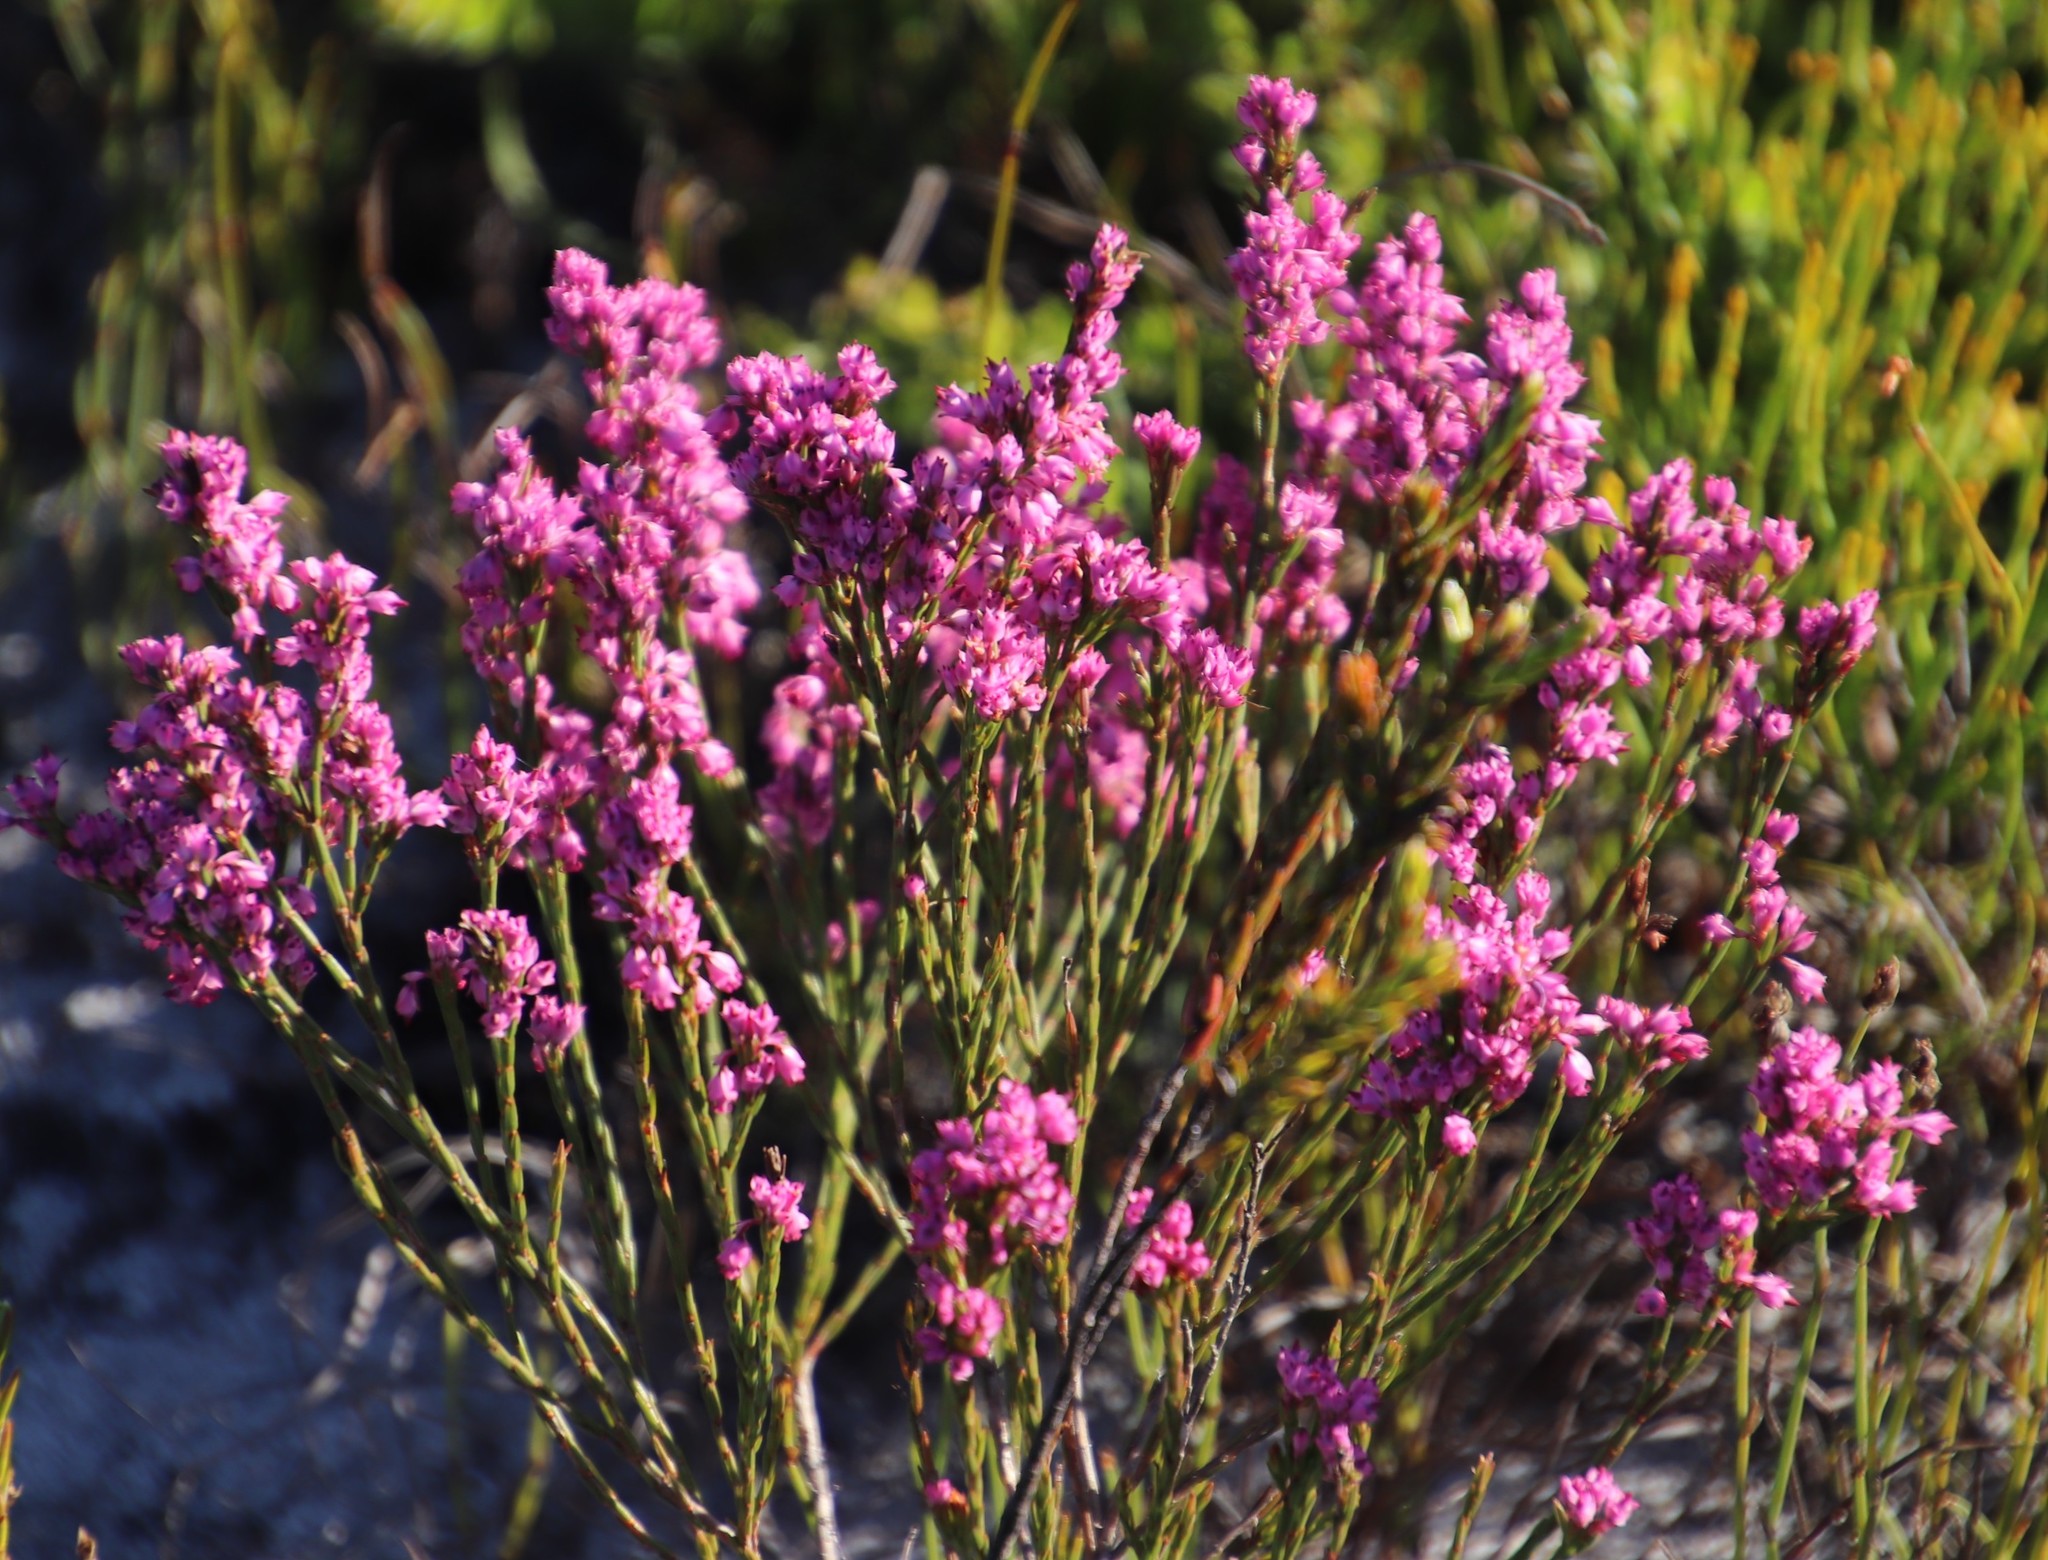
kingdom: Plantae
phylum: Tracheophyta
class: Magnoliopsida
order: Ericales
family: Ericaceae
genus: Erica
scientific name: Erica corifolia
